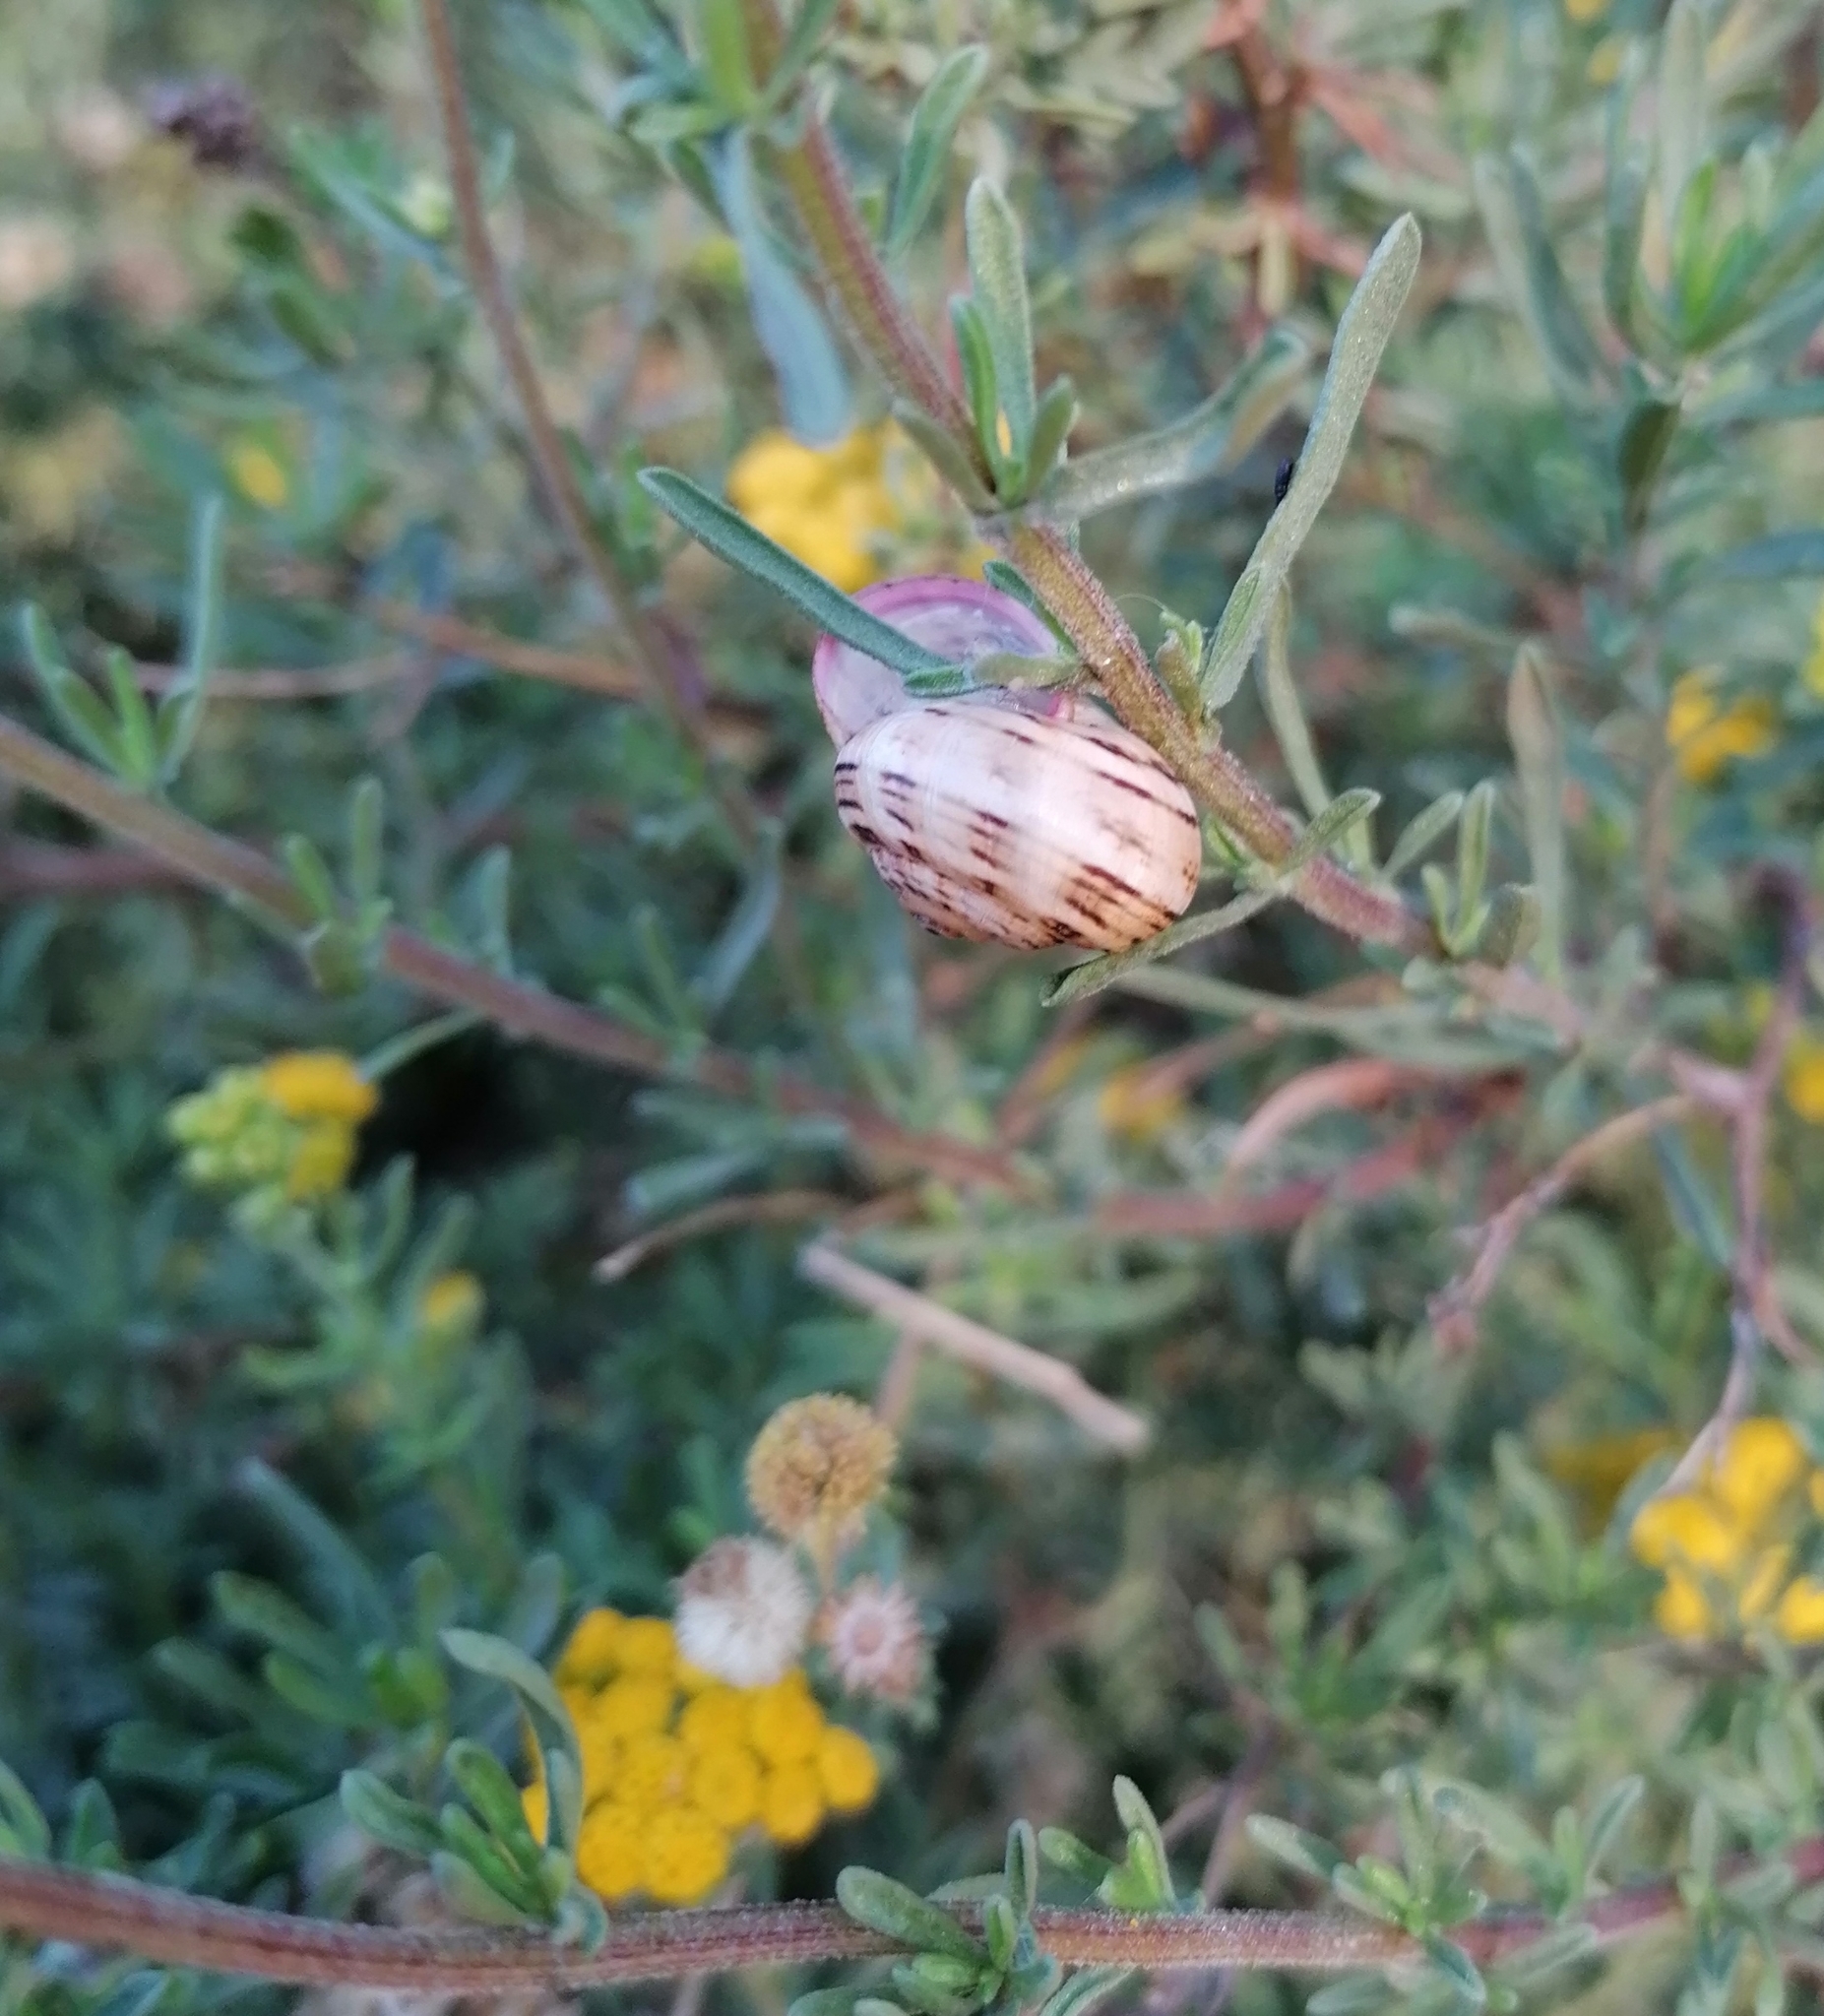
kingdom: Animalia
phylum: Mollusca
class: Gastropoda
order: Stylommatophora
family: Helicidae
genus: Theba
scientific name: Theba pisana
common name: White snail
